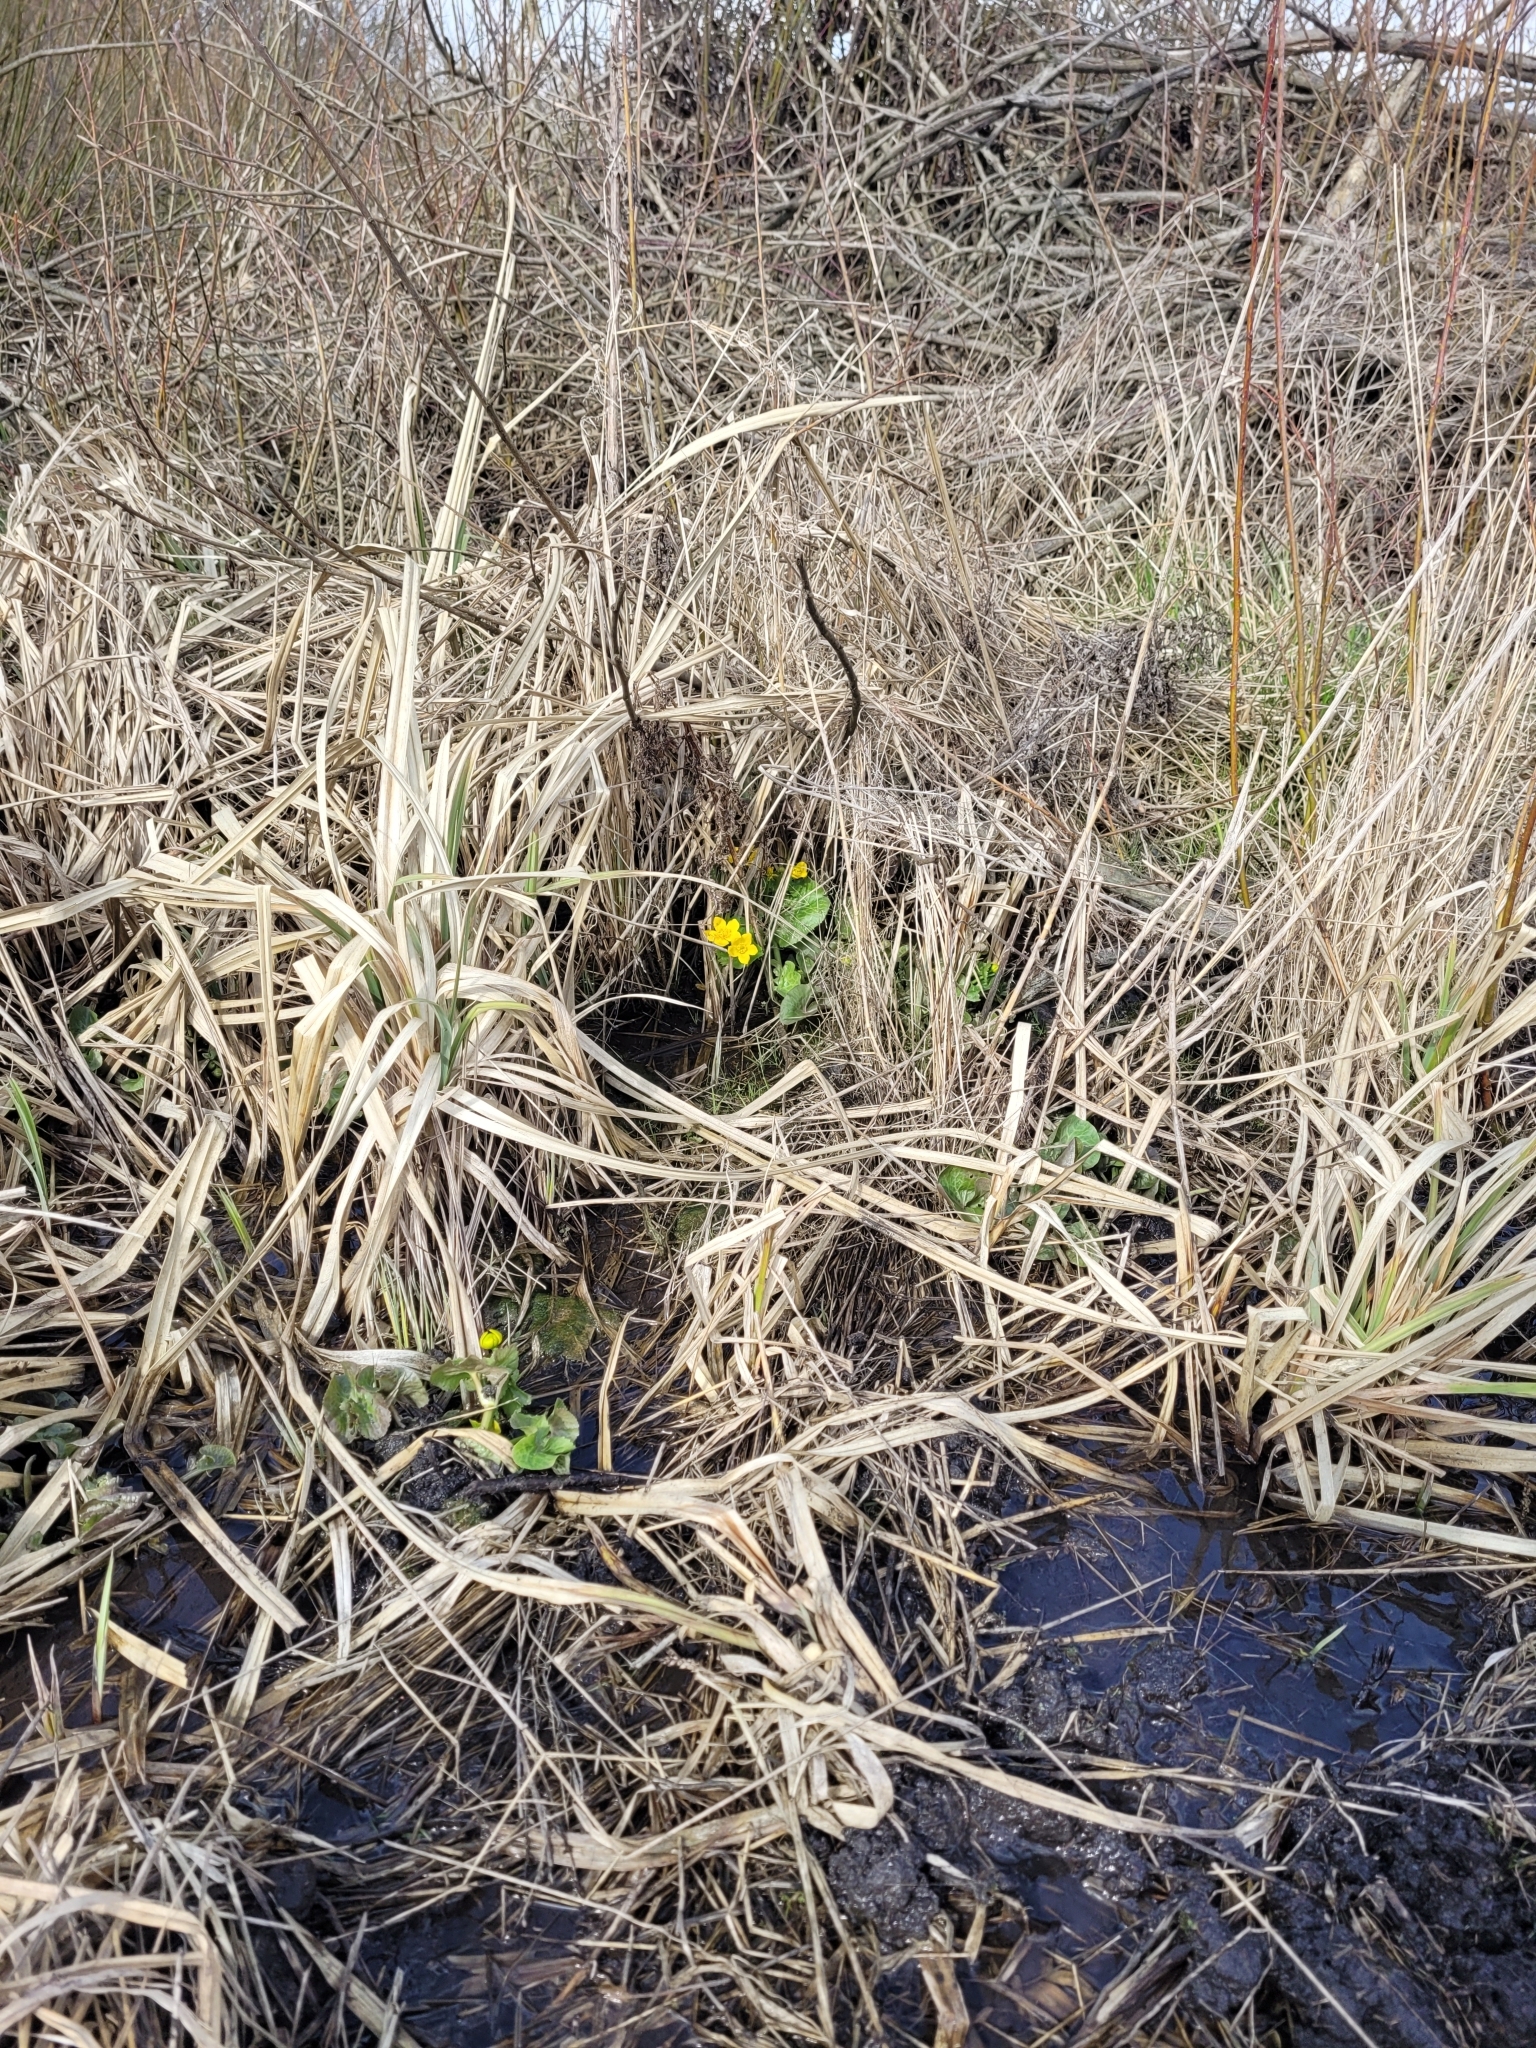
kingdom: Plantae
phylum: Tracheophyta
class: Magnoliopsida
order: Ranunculales
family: Ranunculaceae
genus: Caltha
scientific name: Caltha palustris
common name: Marsh marigold
